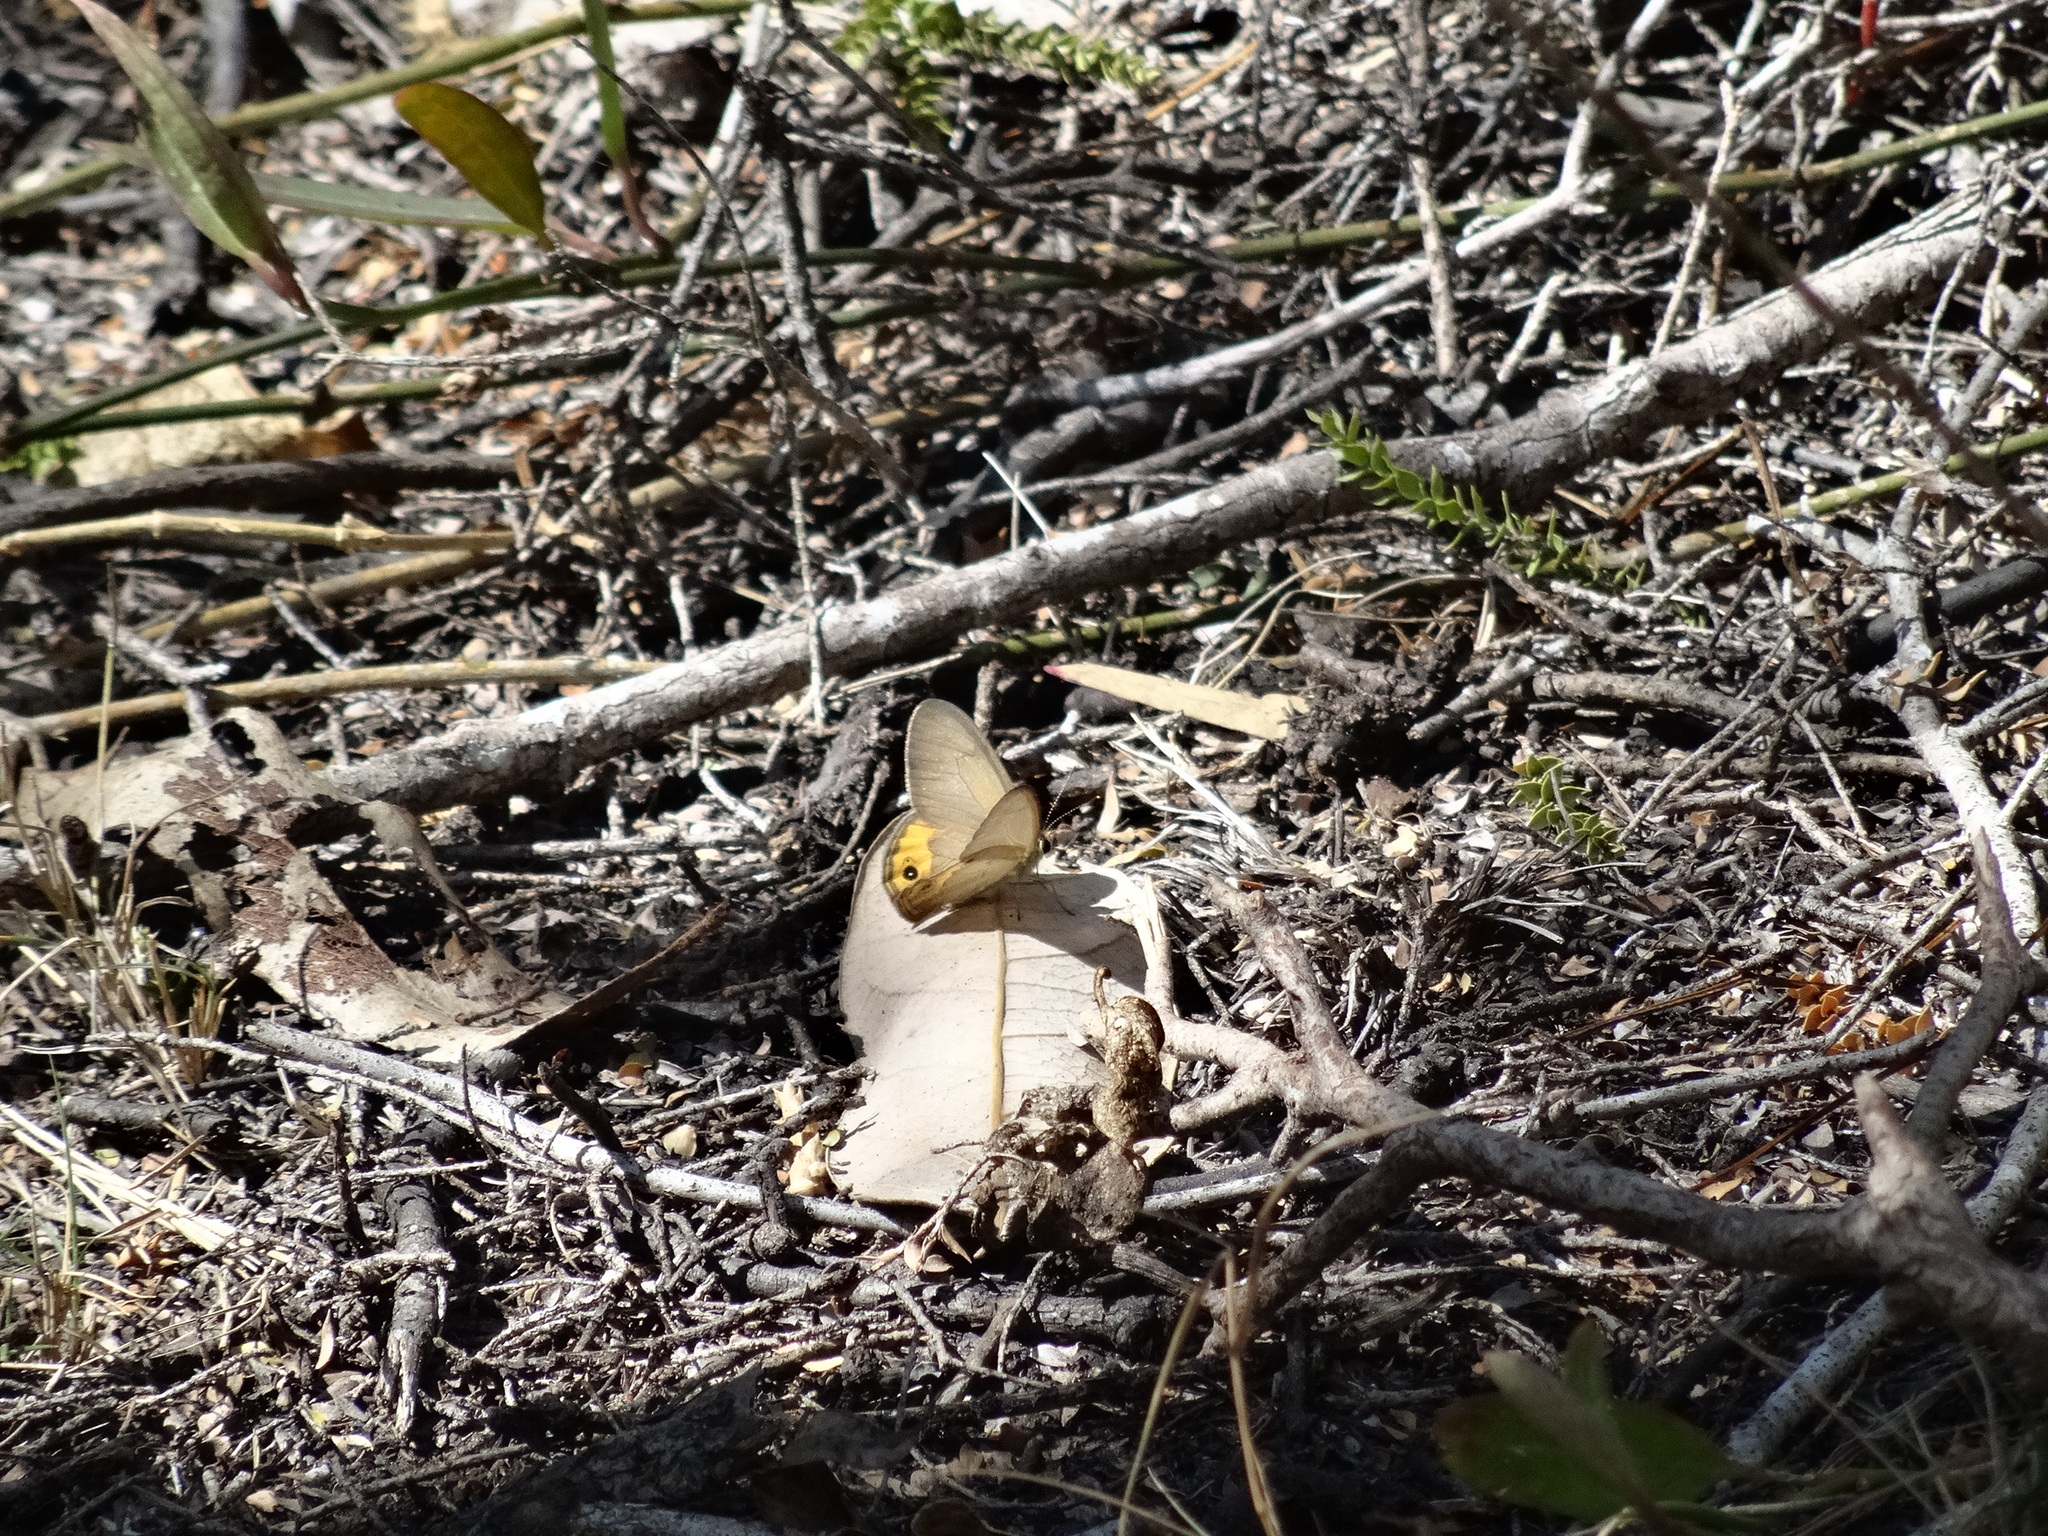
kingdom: Animalia
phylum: Arthropoda
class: Insecta
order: Lepidoptera
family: Nymphalidae
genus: Hypocysta
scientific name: Hypocysta pseudirius
